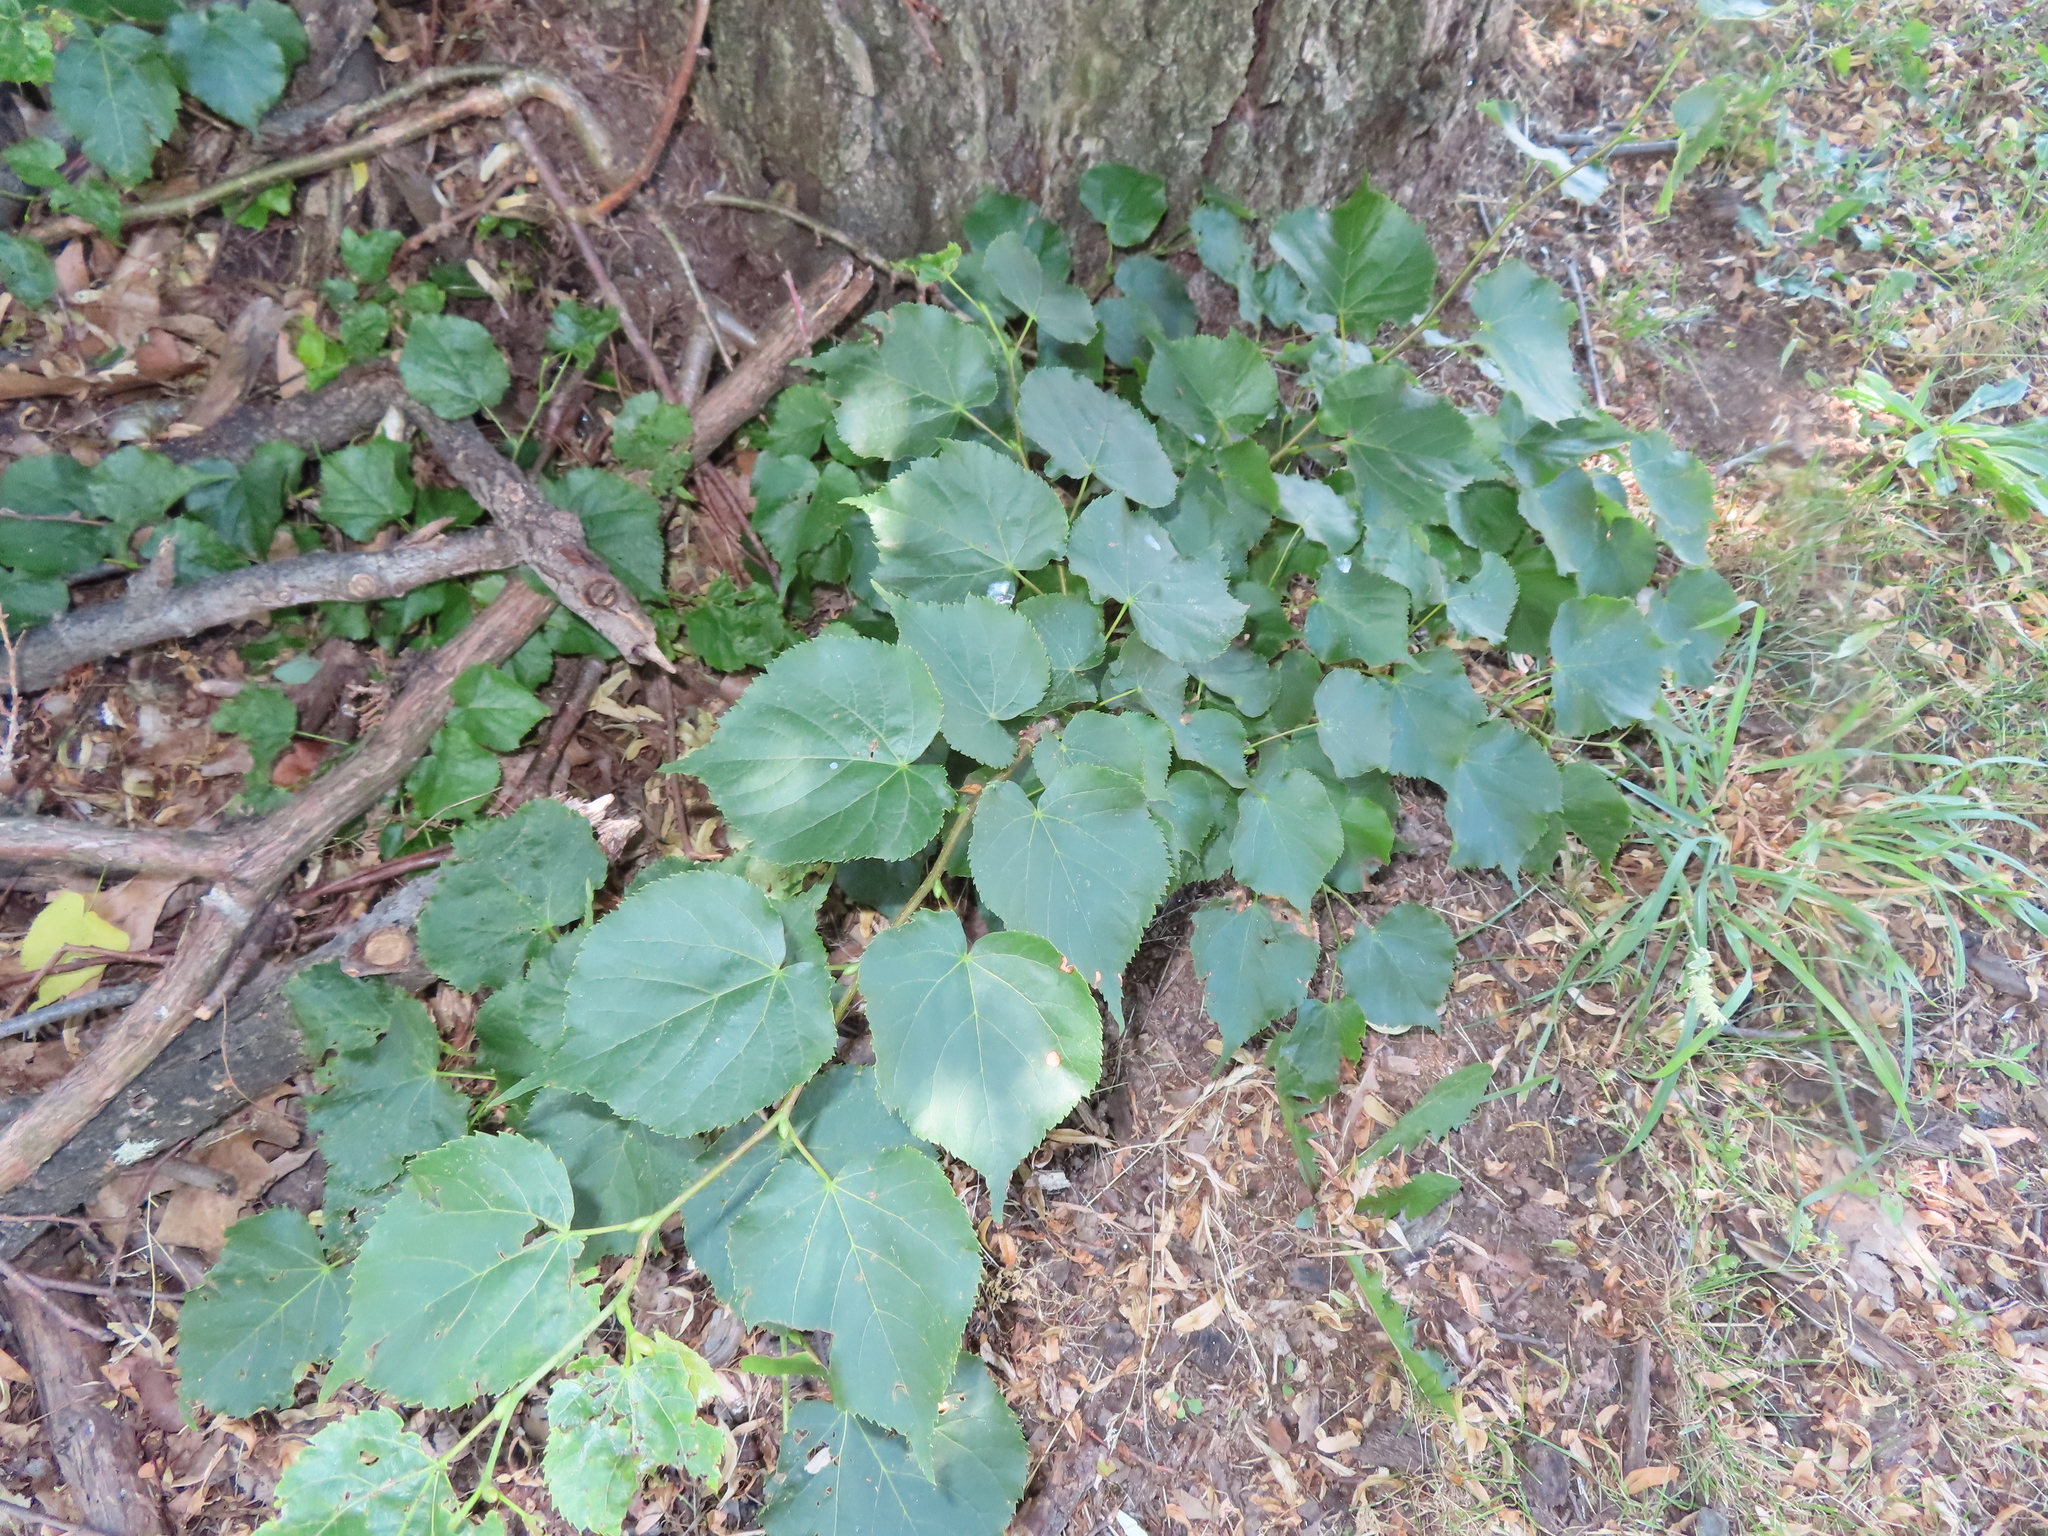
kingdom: Plantae
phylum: Tracheophyta
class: Magnoliopsida
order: Malvales
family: Malvaceae
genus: Tilia
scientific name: Tilia cordata
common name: Small-leaved lime
